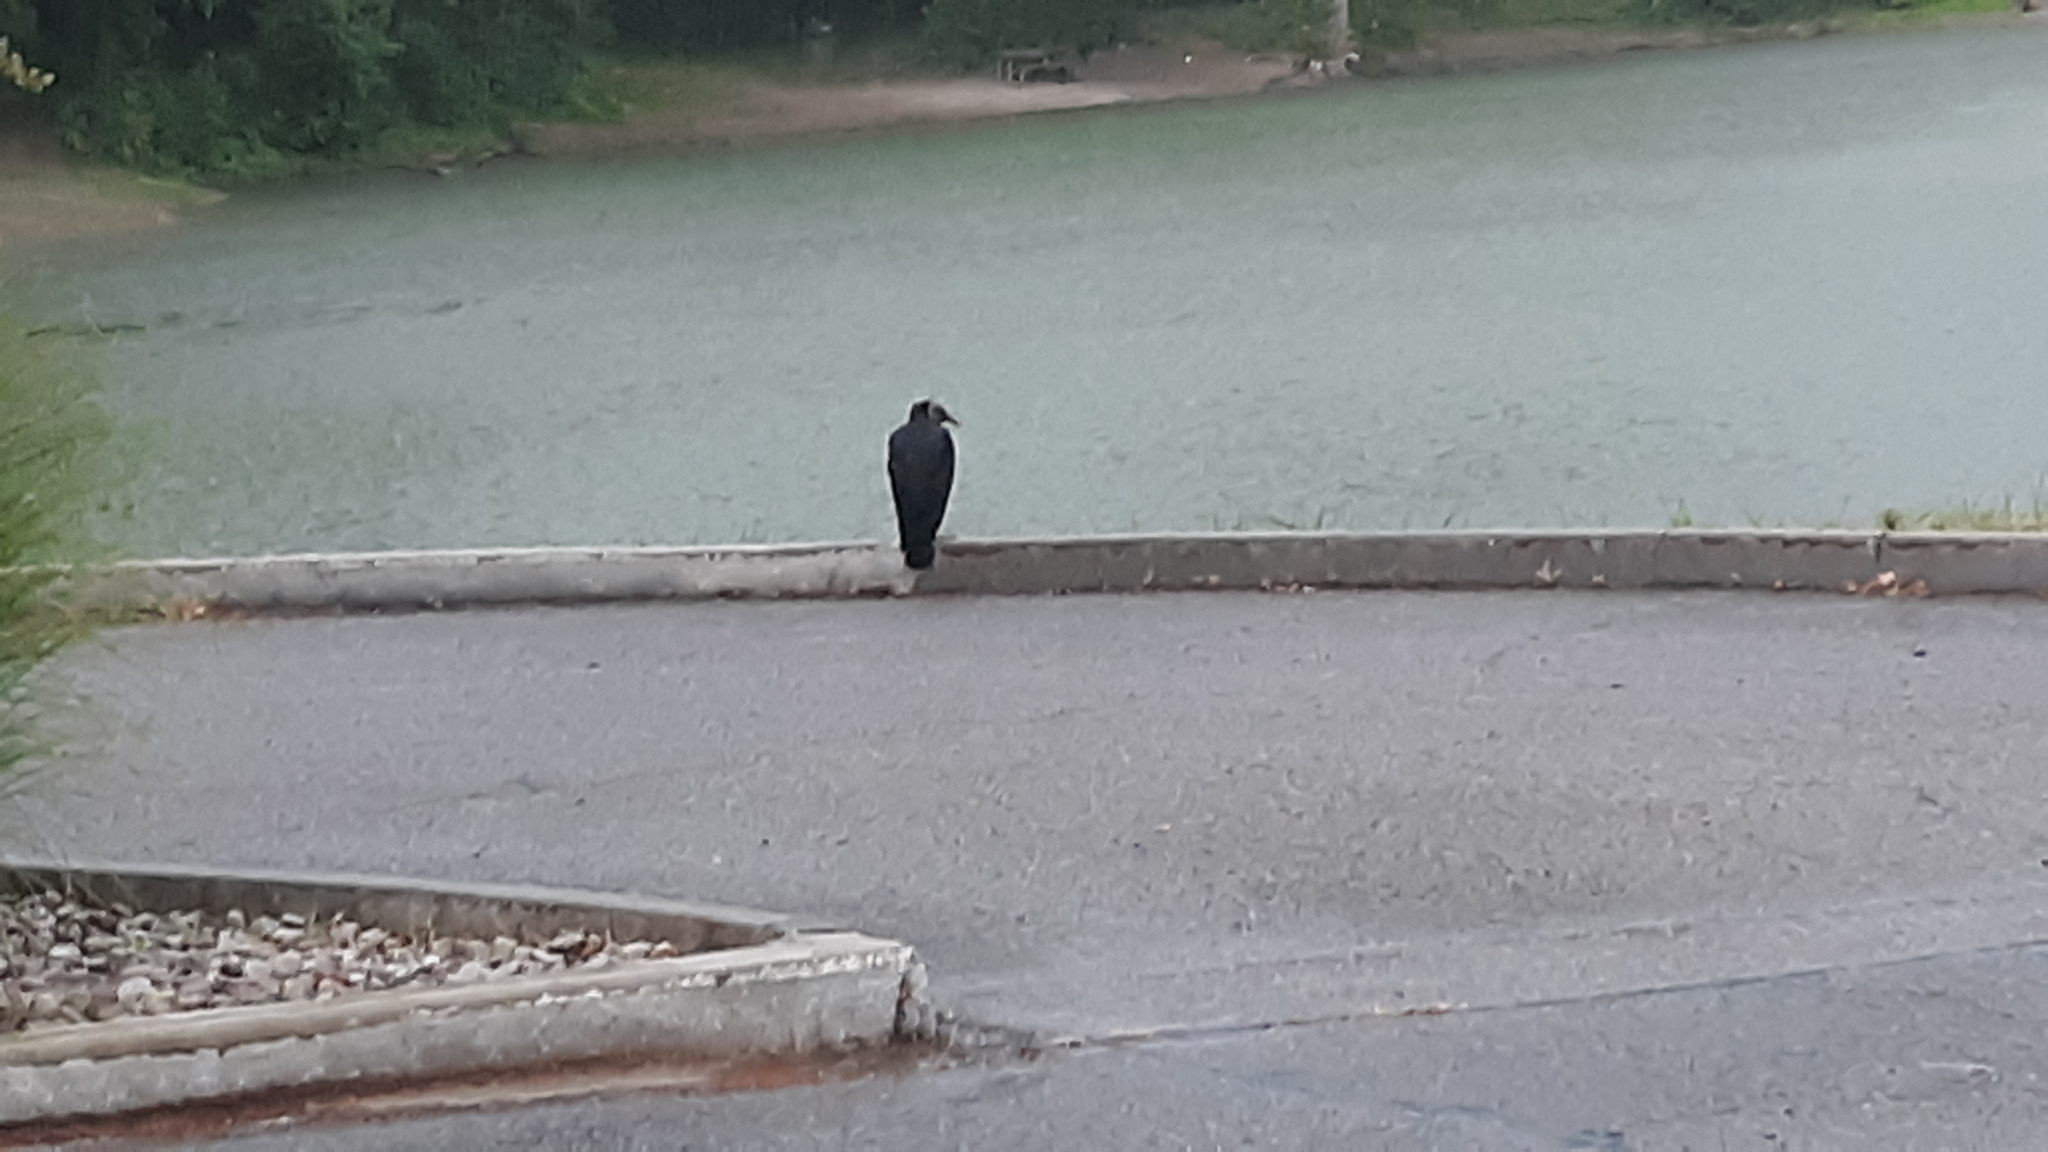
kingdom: Animalia
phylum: Chordata
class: Aves
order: Accipitriformes
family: Cathartidae
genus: Coragyps
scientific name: Coragyps atratus
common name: Black vulture
